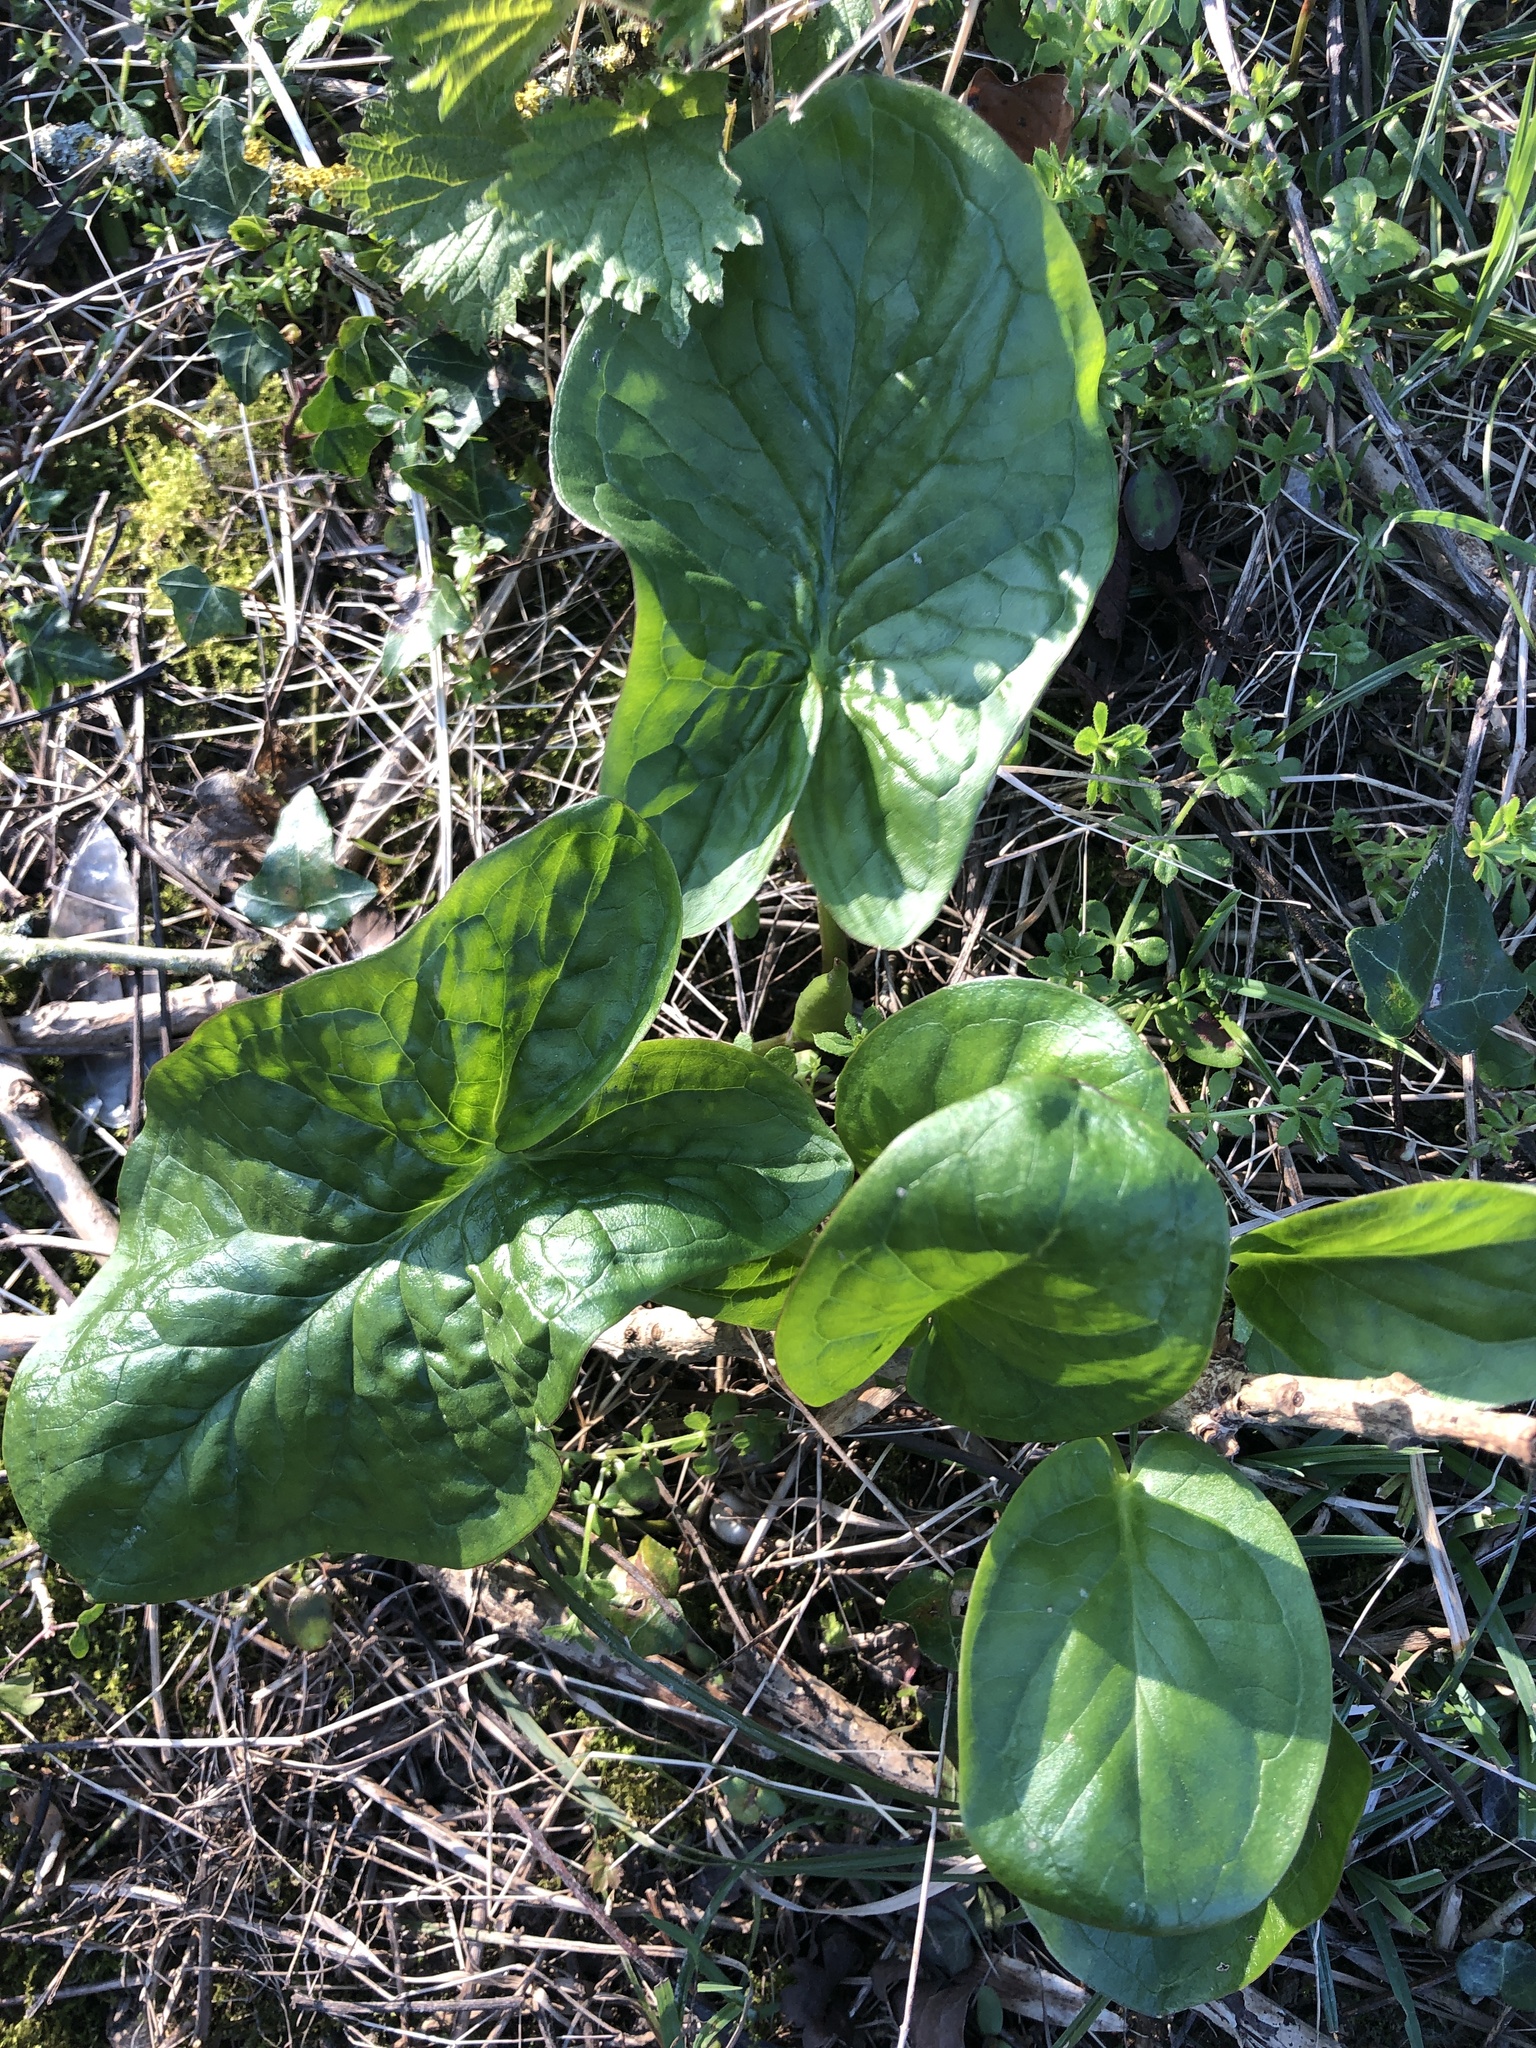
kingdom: Plantae
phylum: Tracheophyta
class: Liliopsida
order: Alismatales
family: Araceae
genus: Arum
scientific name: Arum maculatum
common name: Lords-and-ladies
